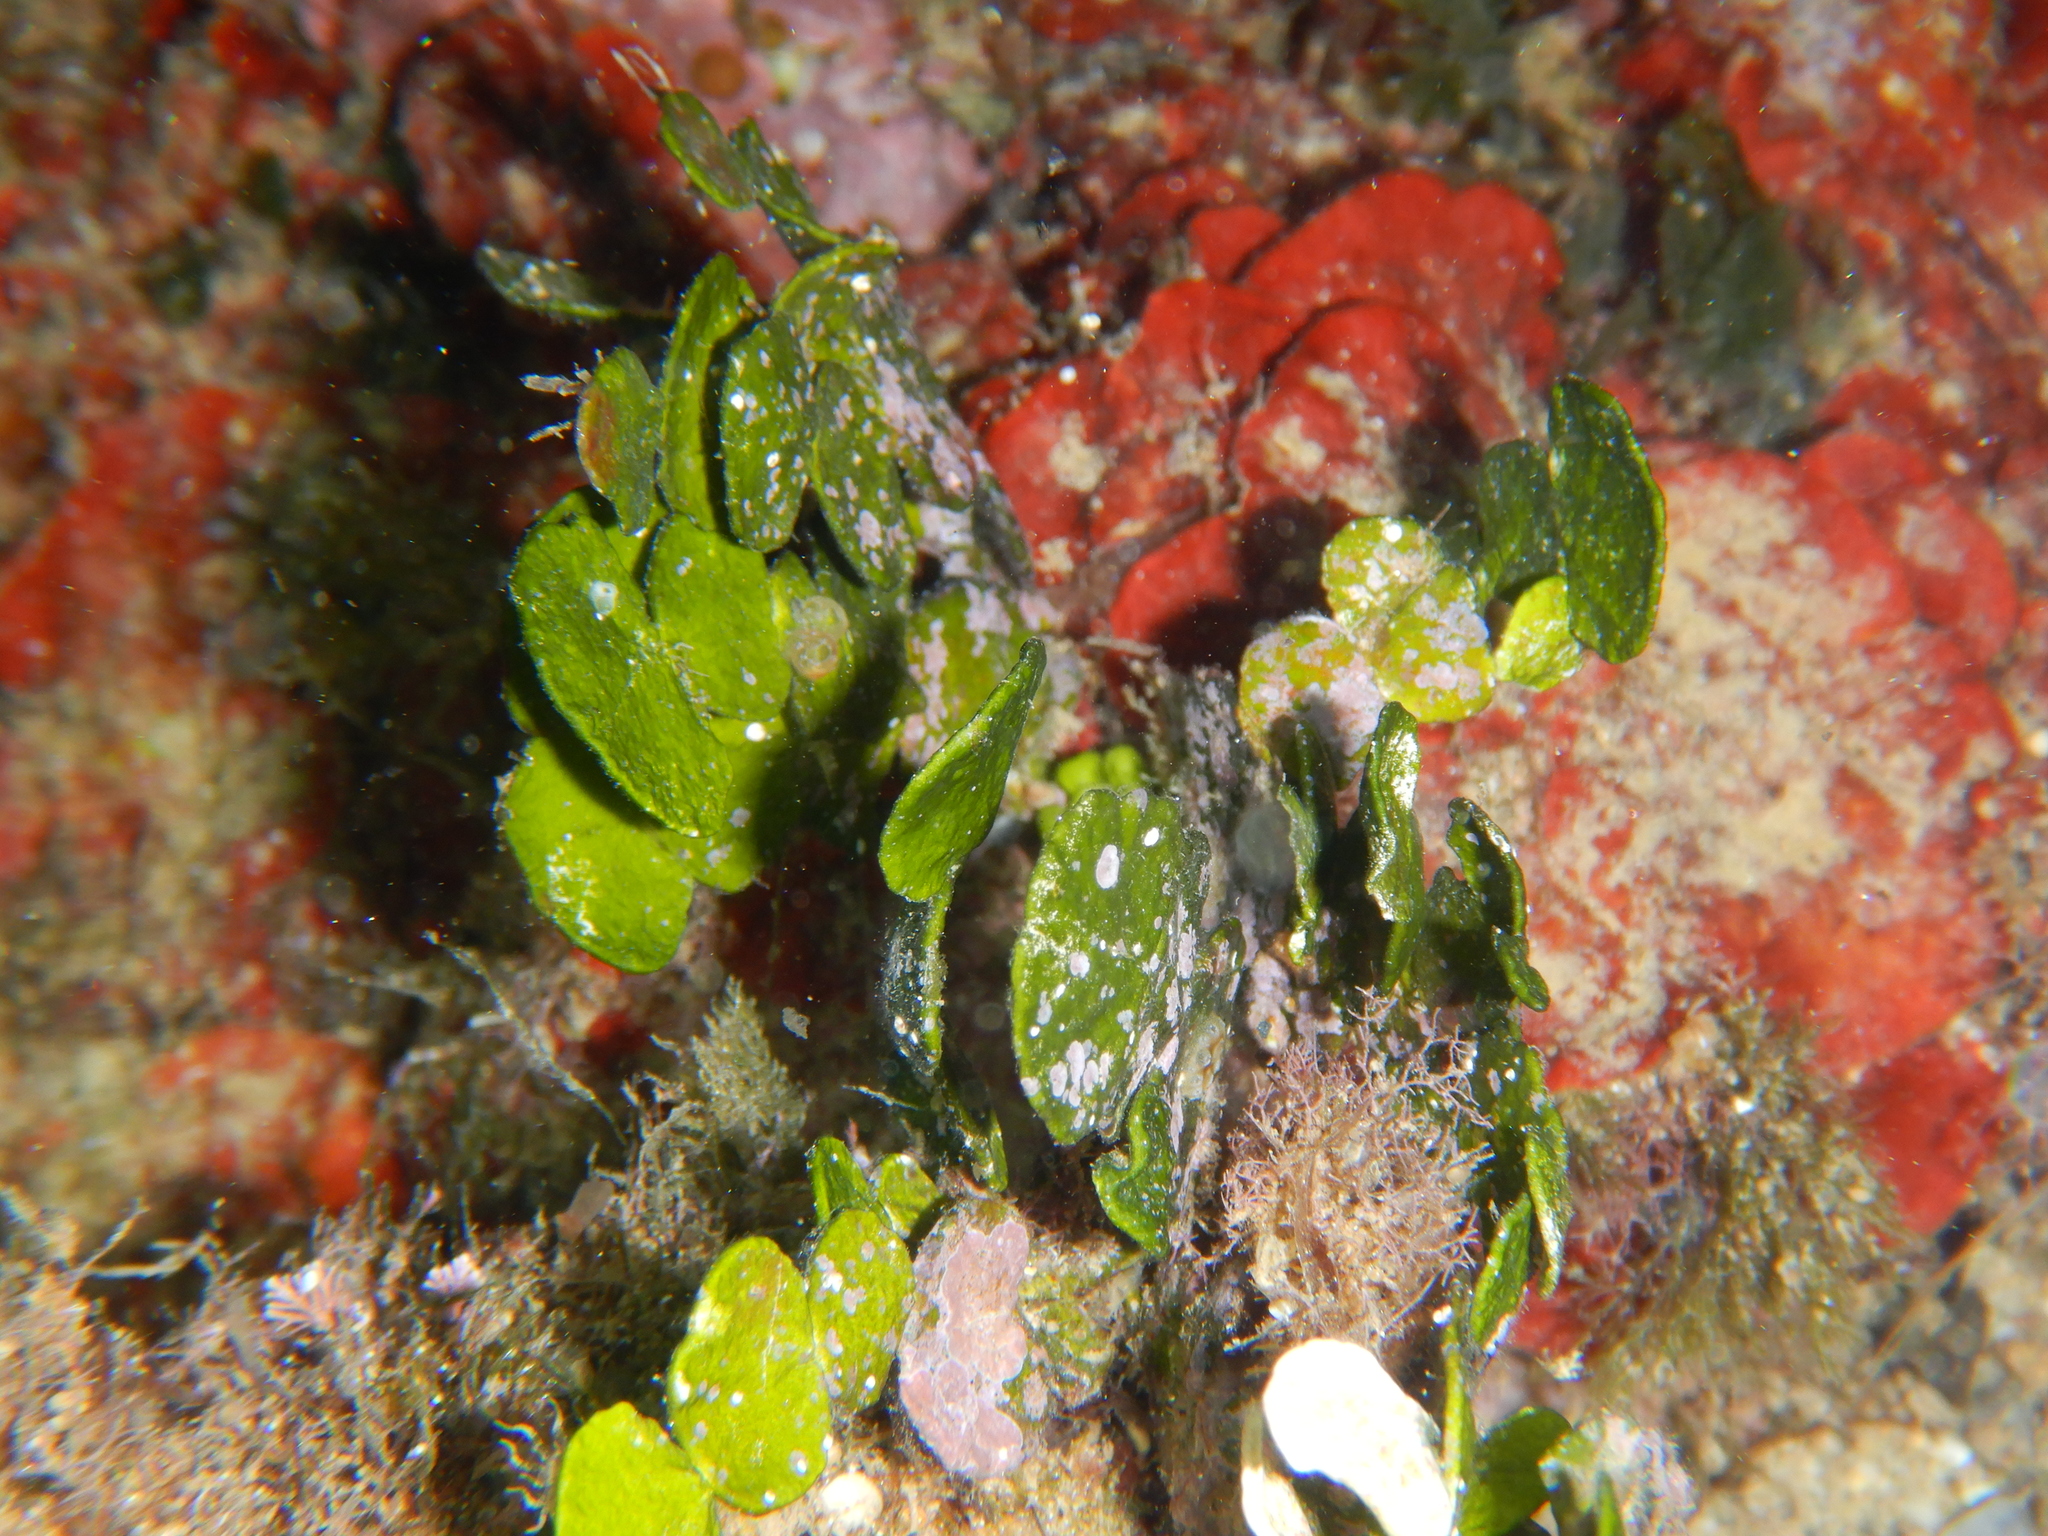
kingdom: Plantae
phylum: Chlorophyta
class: Ulvophyceae
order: Bryopsidales
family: Halimedaceae
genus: Halimeda
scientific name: Halimeda tuna
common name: Stalked lettuce leaf algae
